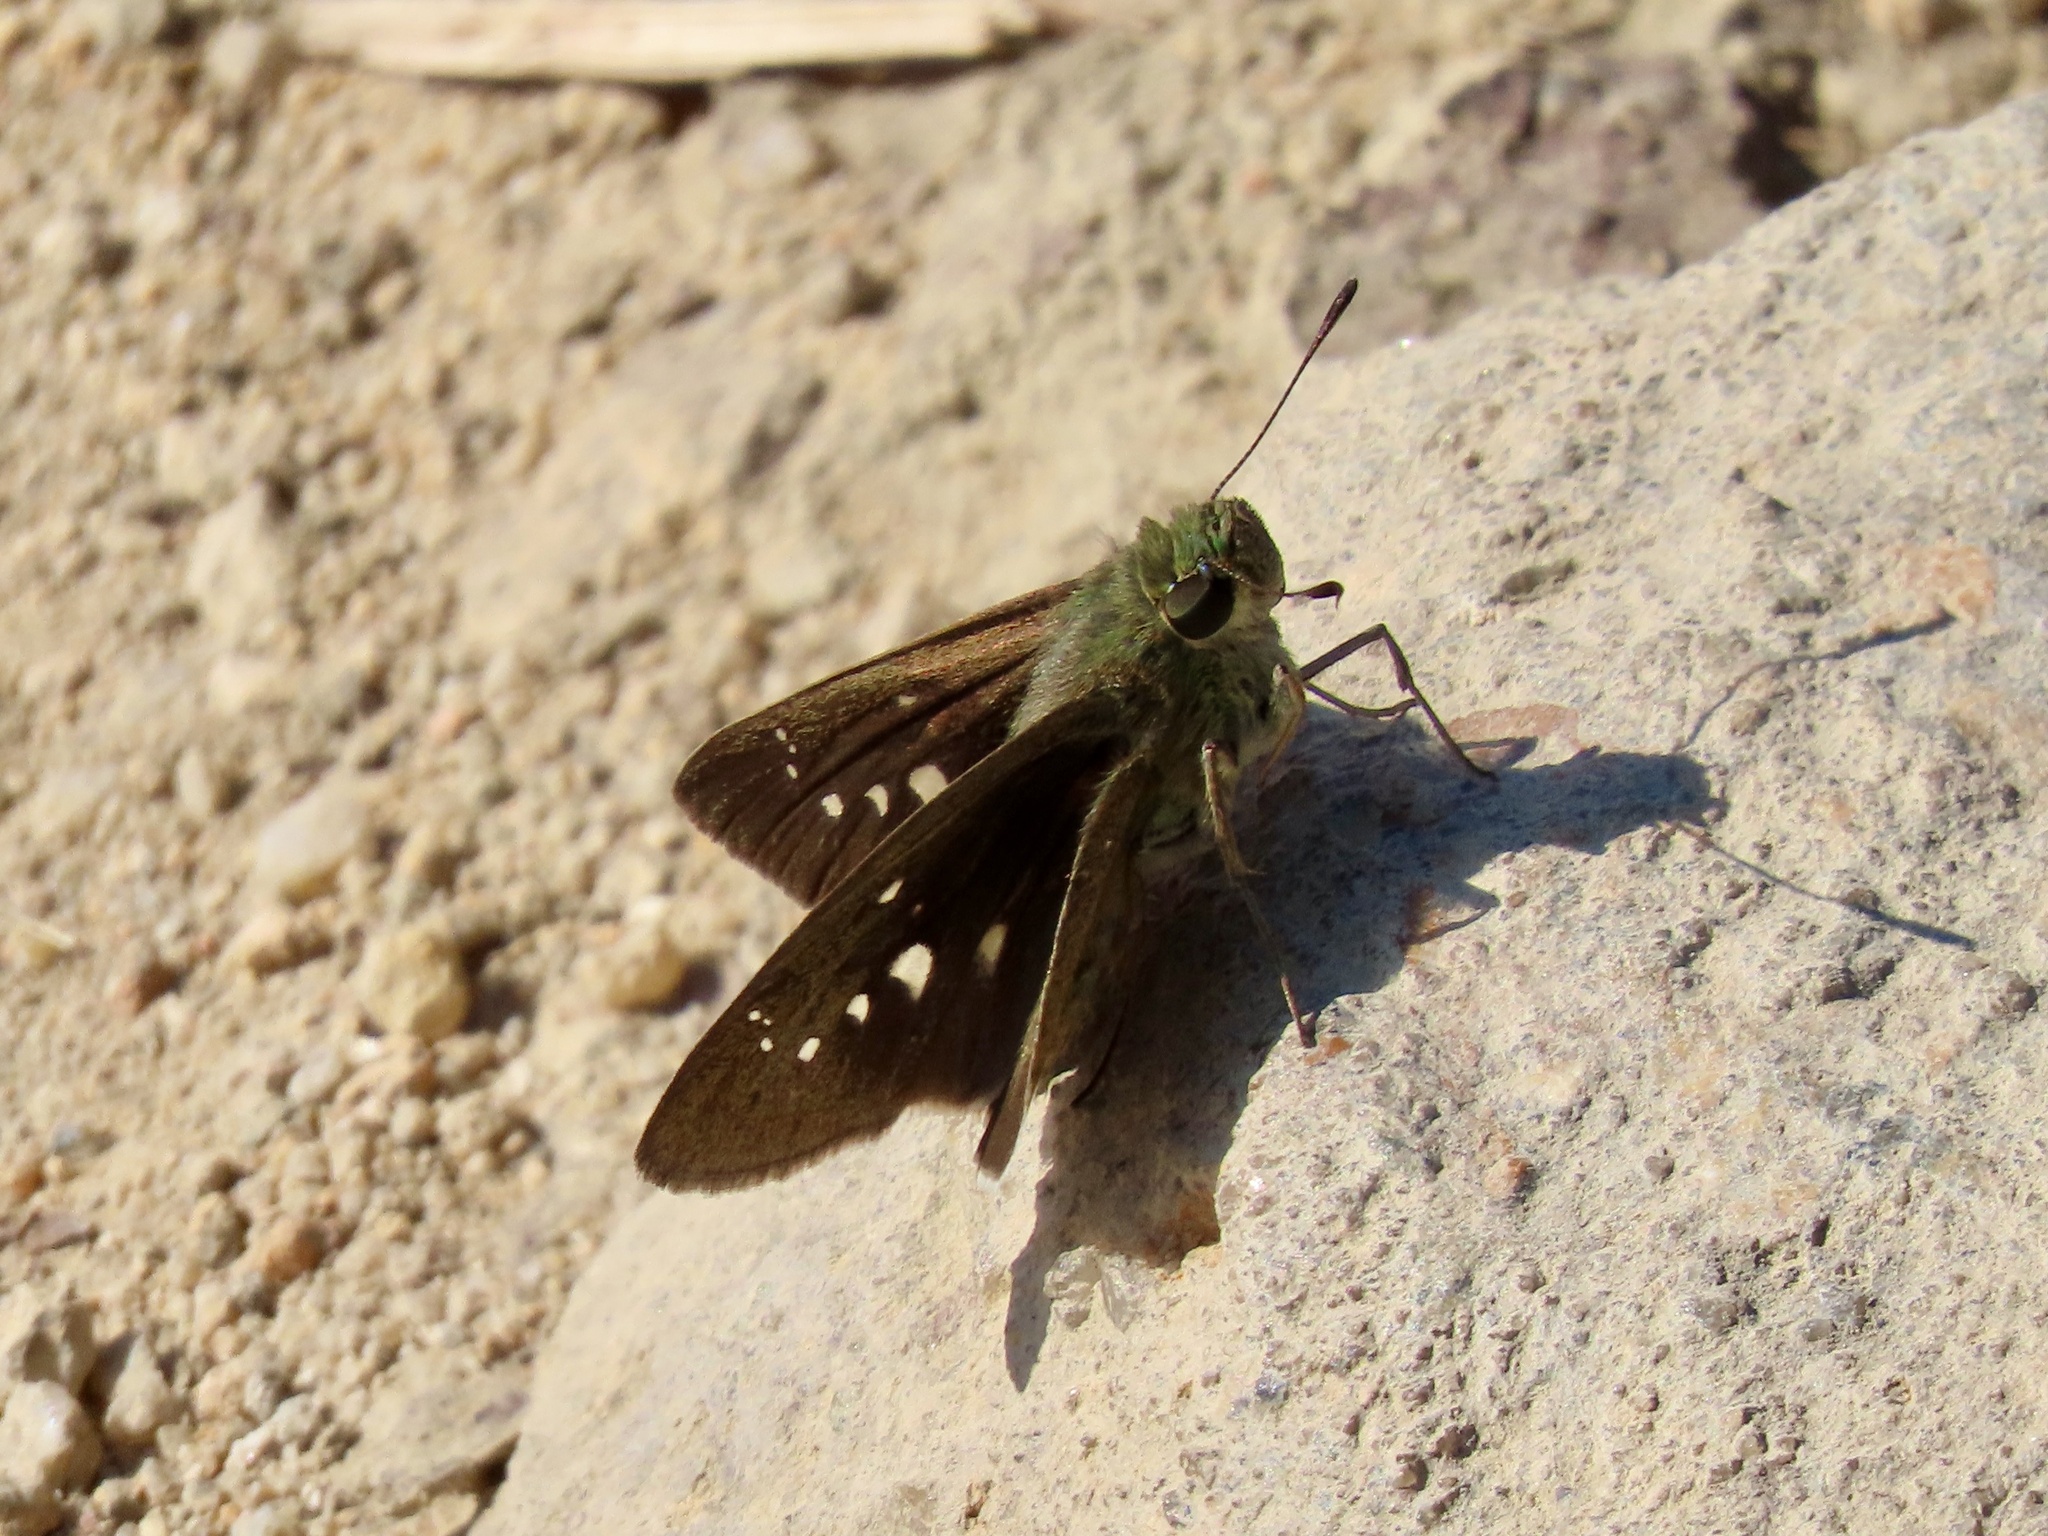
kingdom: Animalia
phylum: Arthropoda
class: Insecta
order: Lepidoptera
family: Hesperiidae
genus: Borbo
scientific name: Borbo cinnara
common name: Formosan swift
